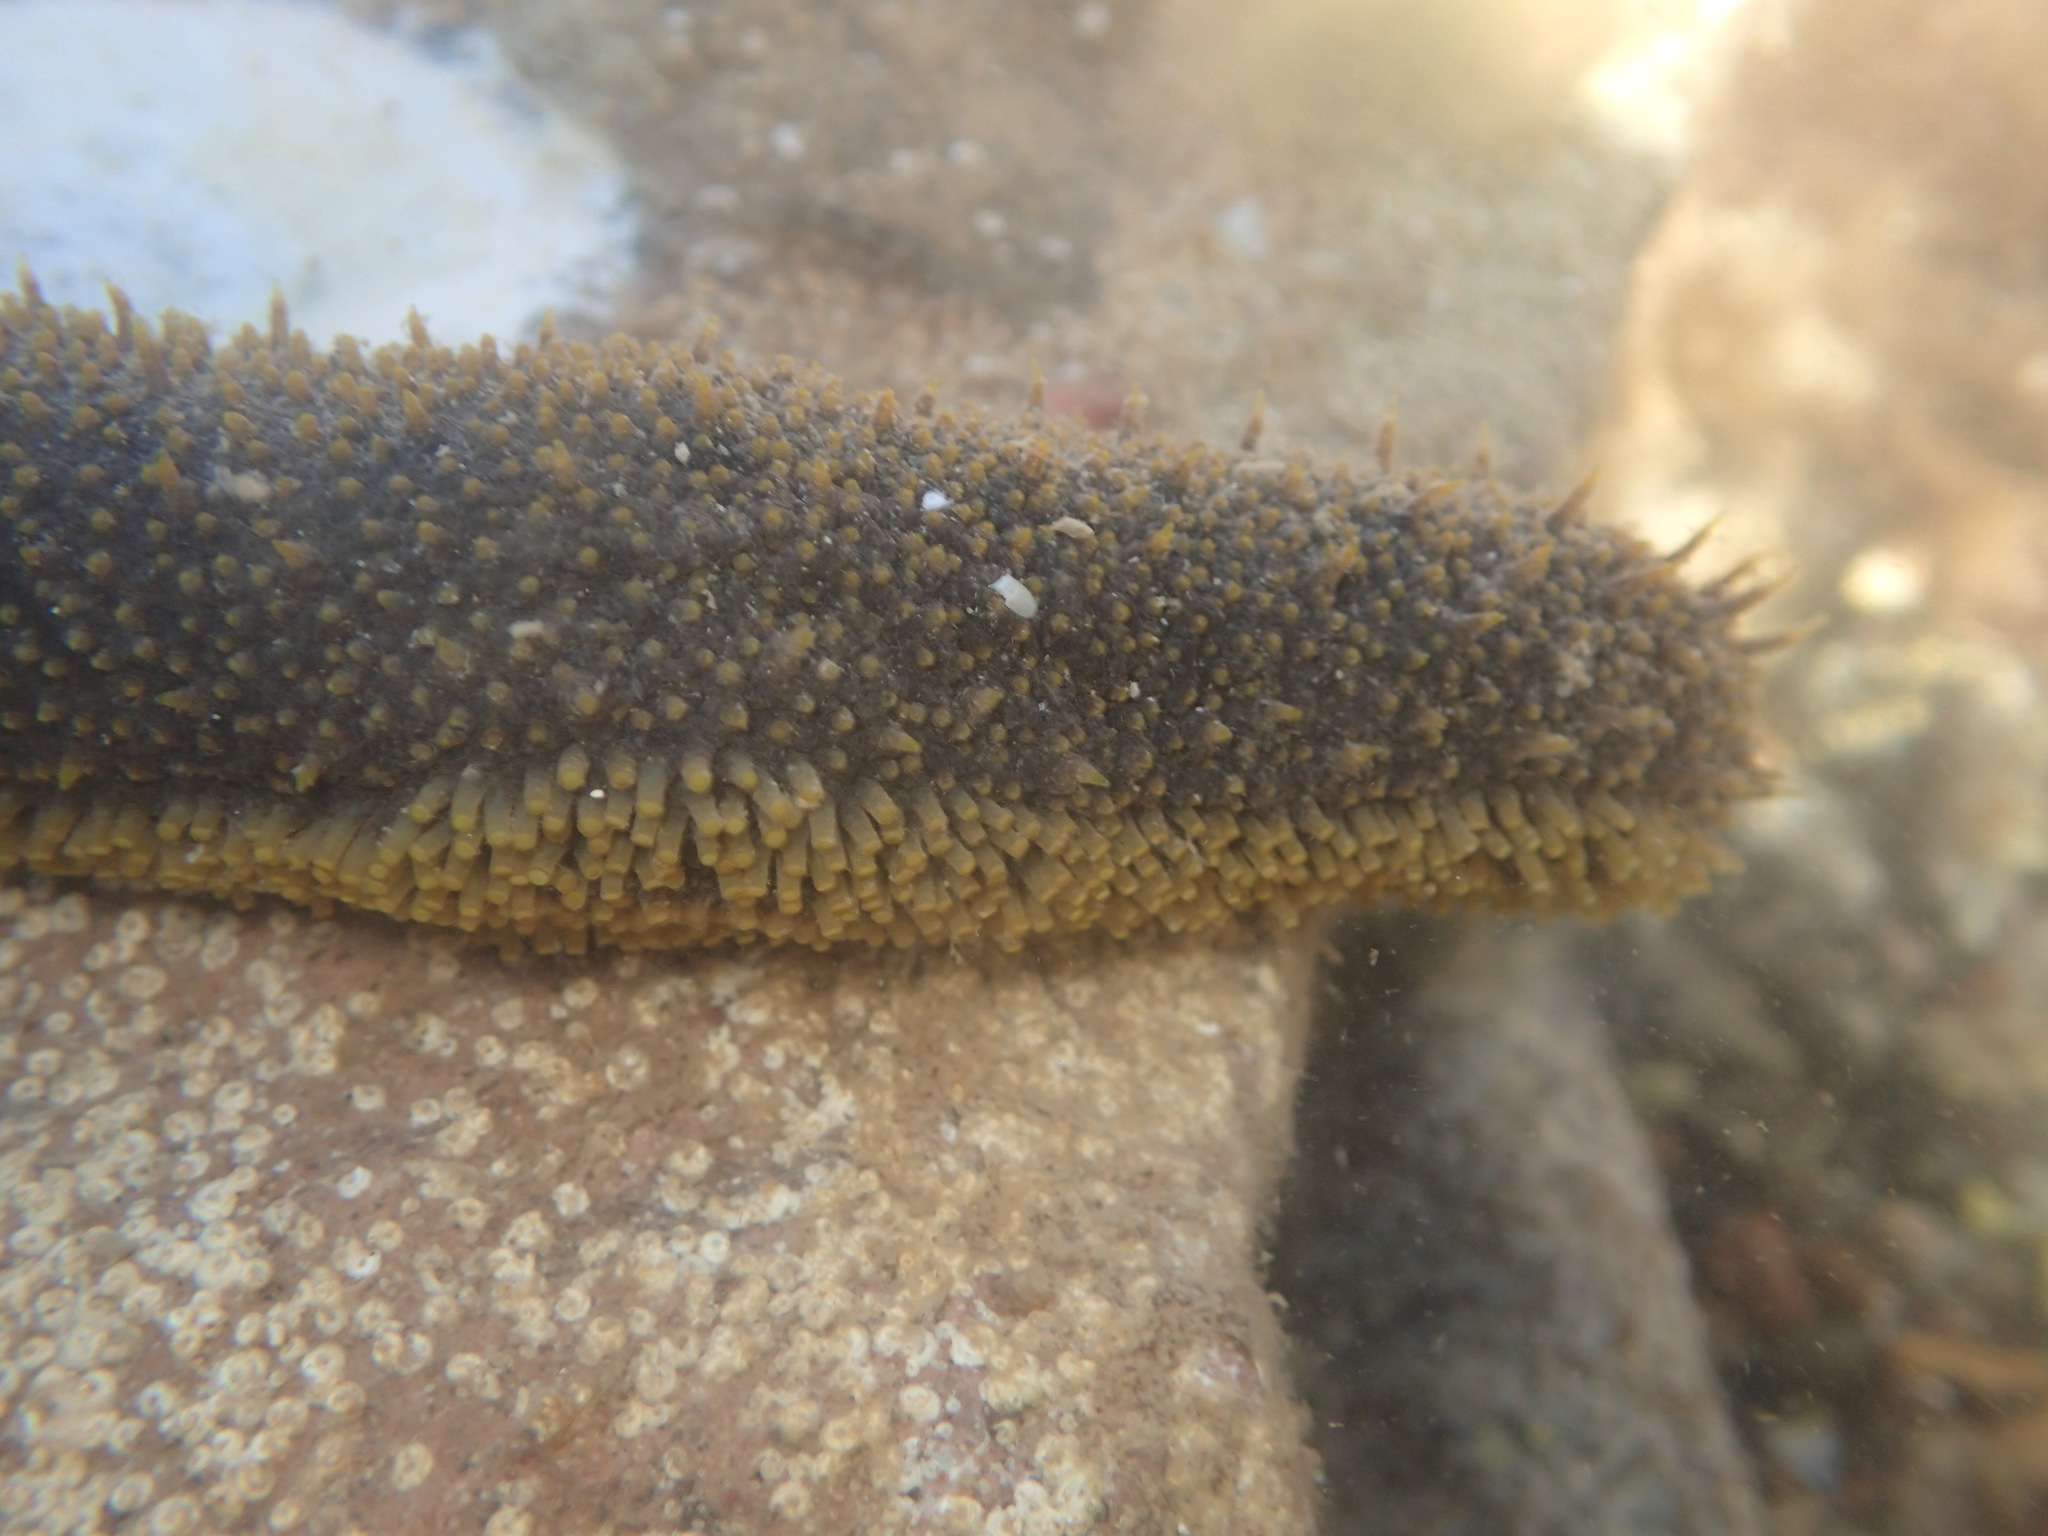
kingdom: Animalia
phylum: Echinodermata
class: Holothuroidea
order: Holothuriida
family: Holothuriidae
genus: Holothuria
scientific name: Holothuria lubrica
